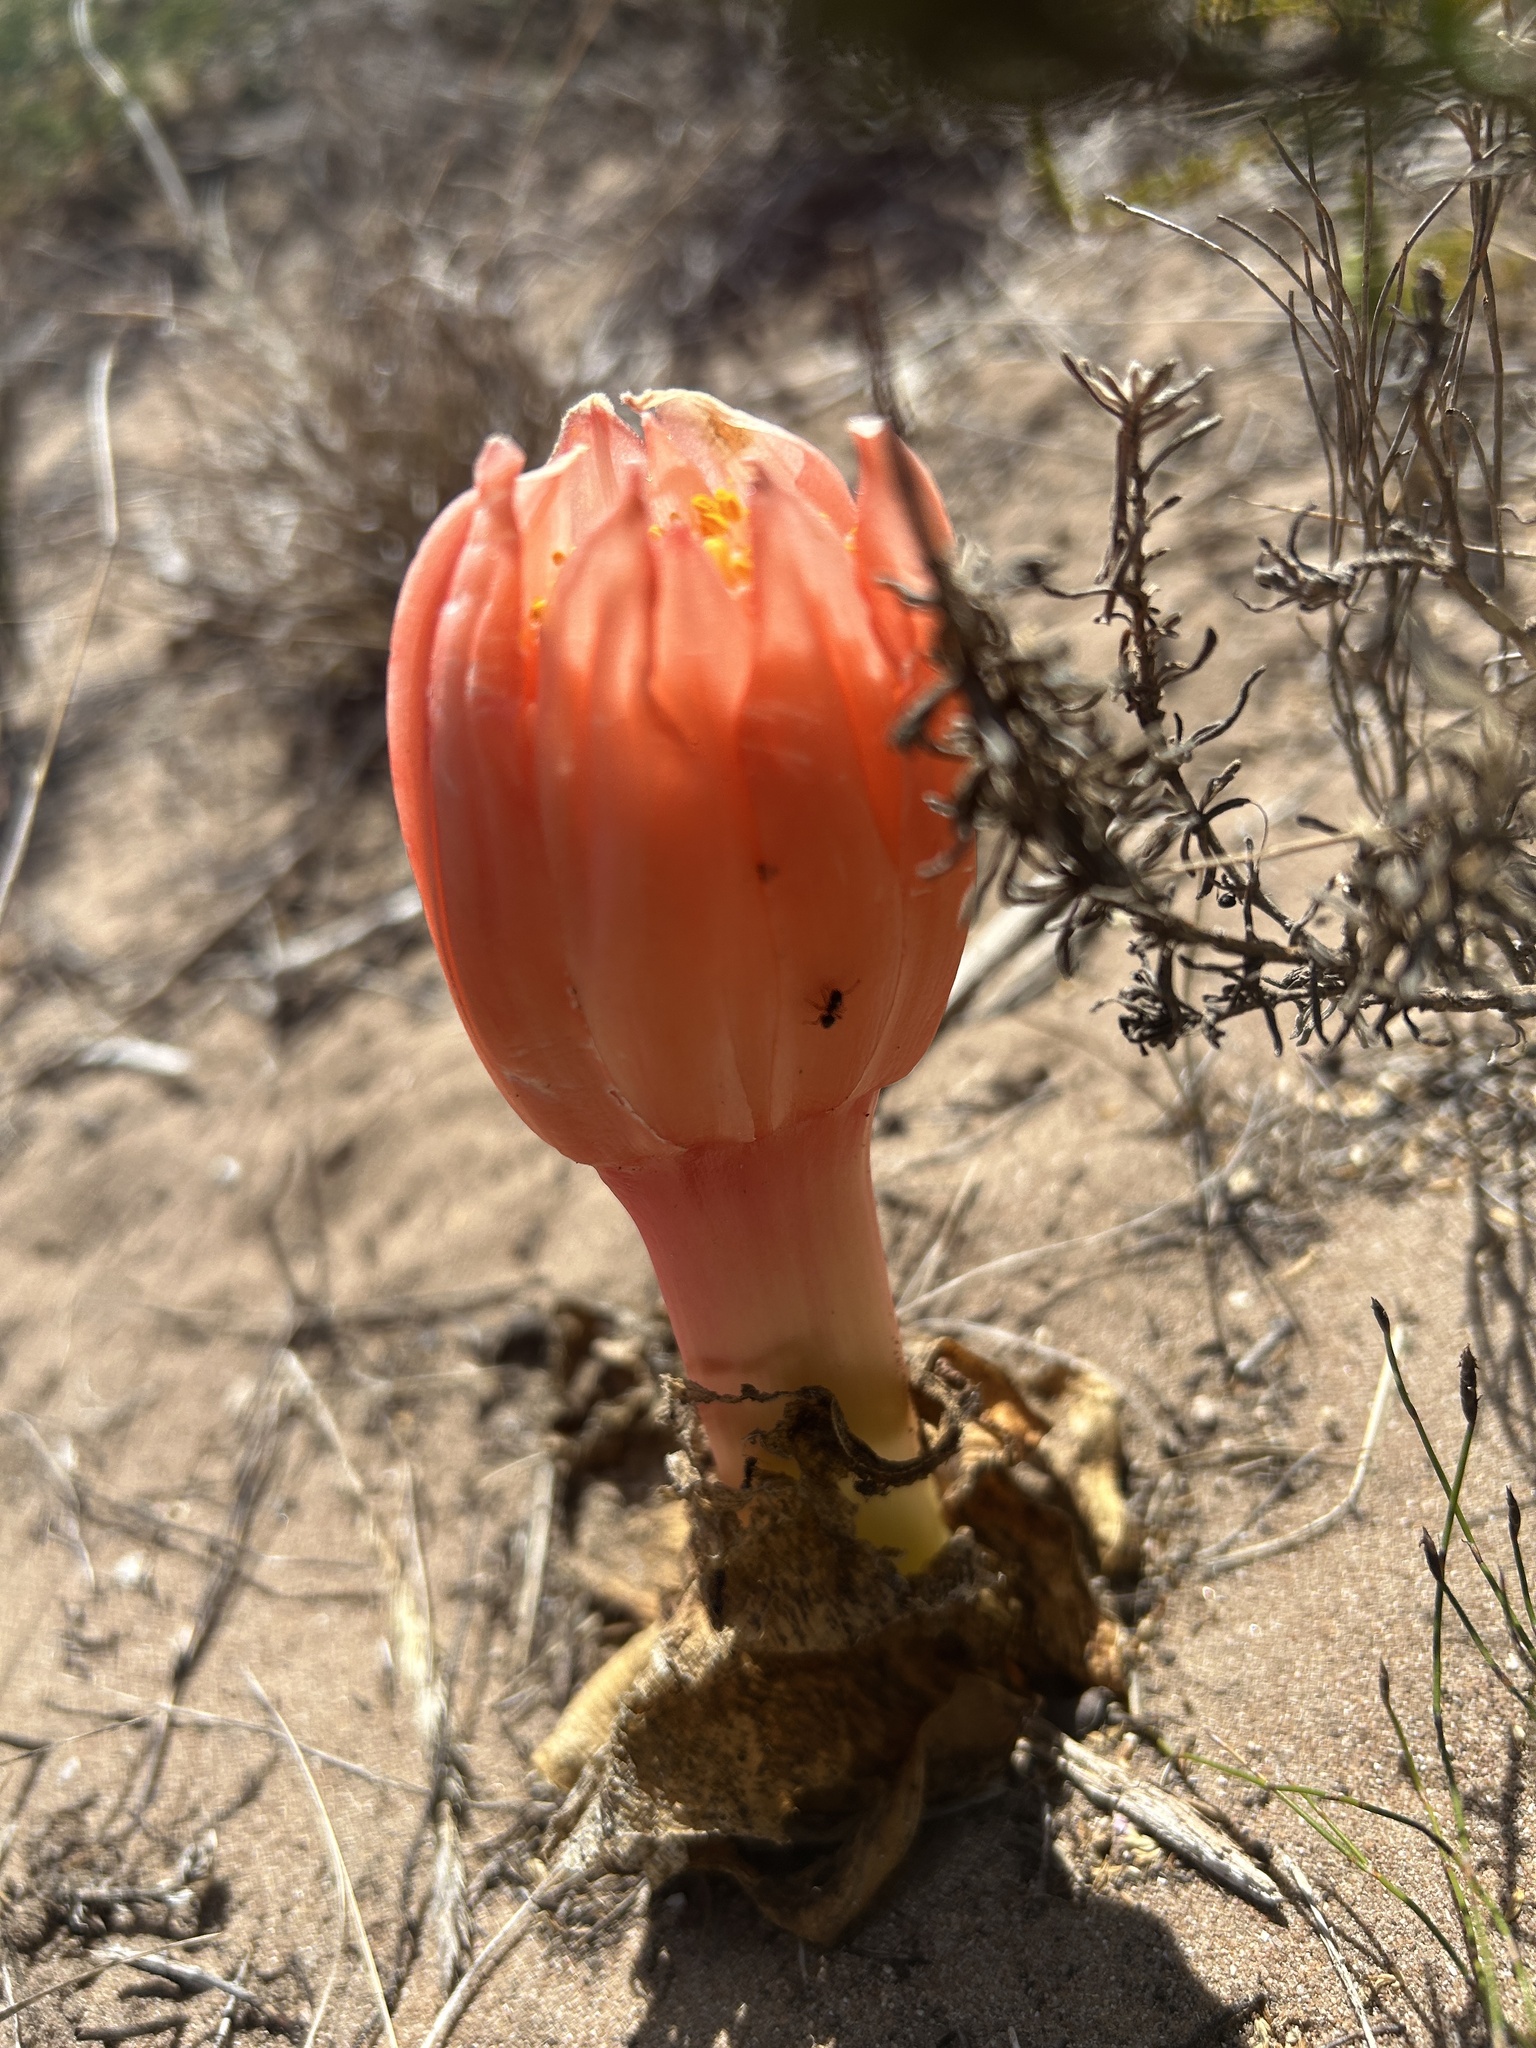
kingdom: Plantae
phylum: Tracheophyta
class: Liliopsida
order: Asparagales
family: Amaryllidaceae
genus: Haemanthus
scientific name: Haemanthus sanguineus
